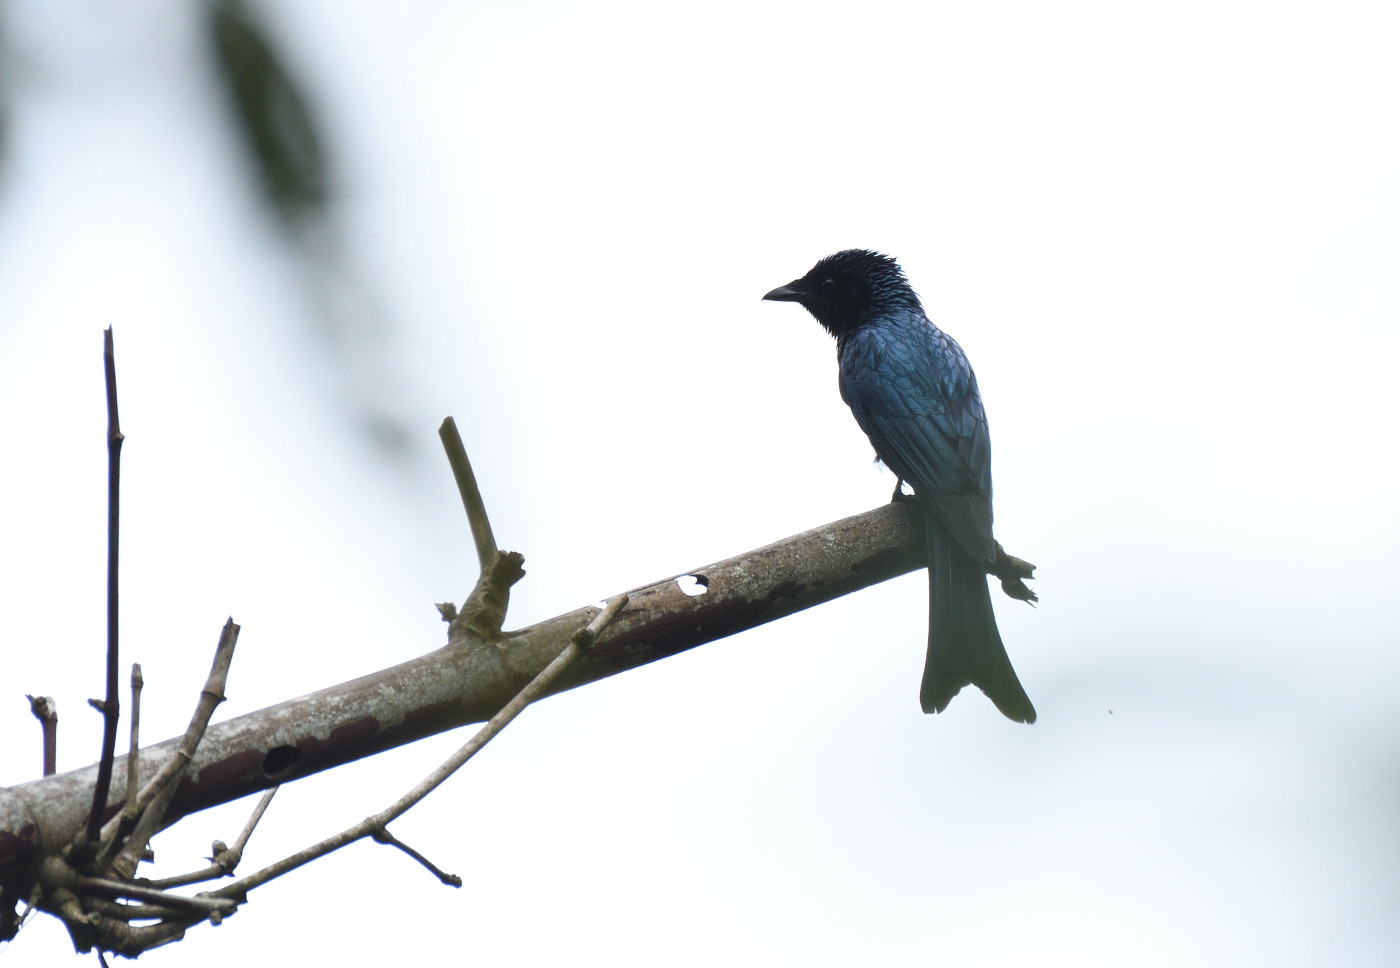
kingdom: Animalia
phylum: Chordata
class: Aves
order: Passeriformes
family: Dicruridae
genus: Dicrurus
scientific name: Dicrurus aeneus
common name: Bronzed drongo
